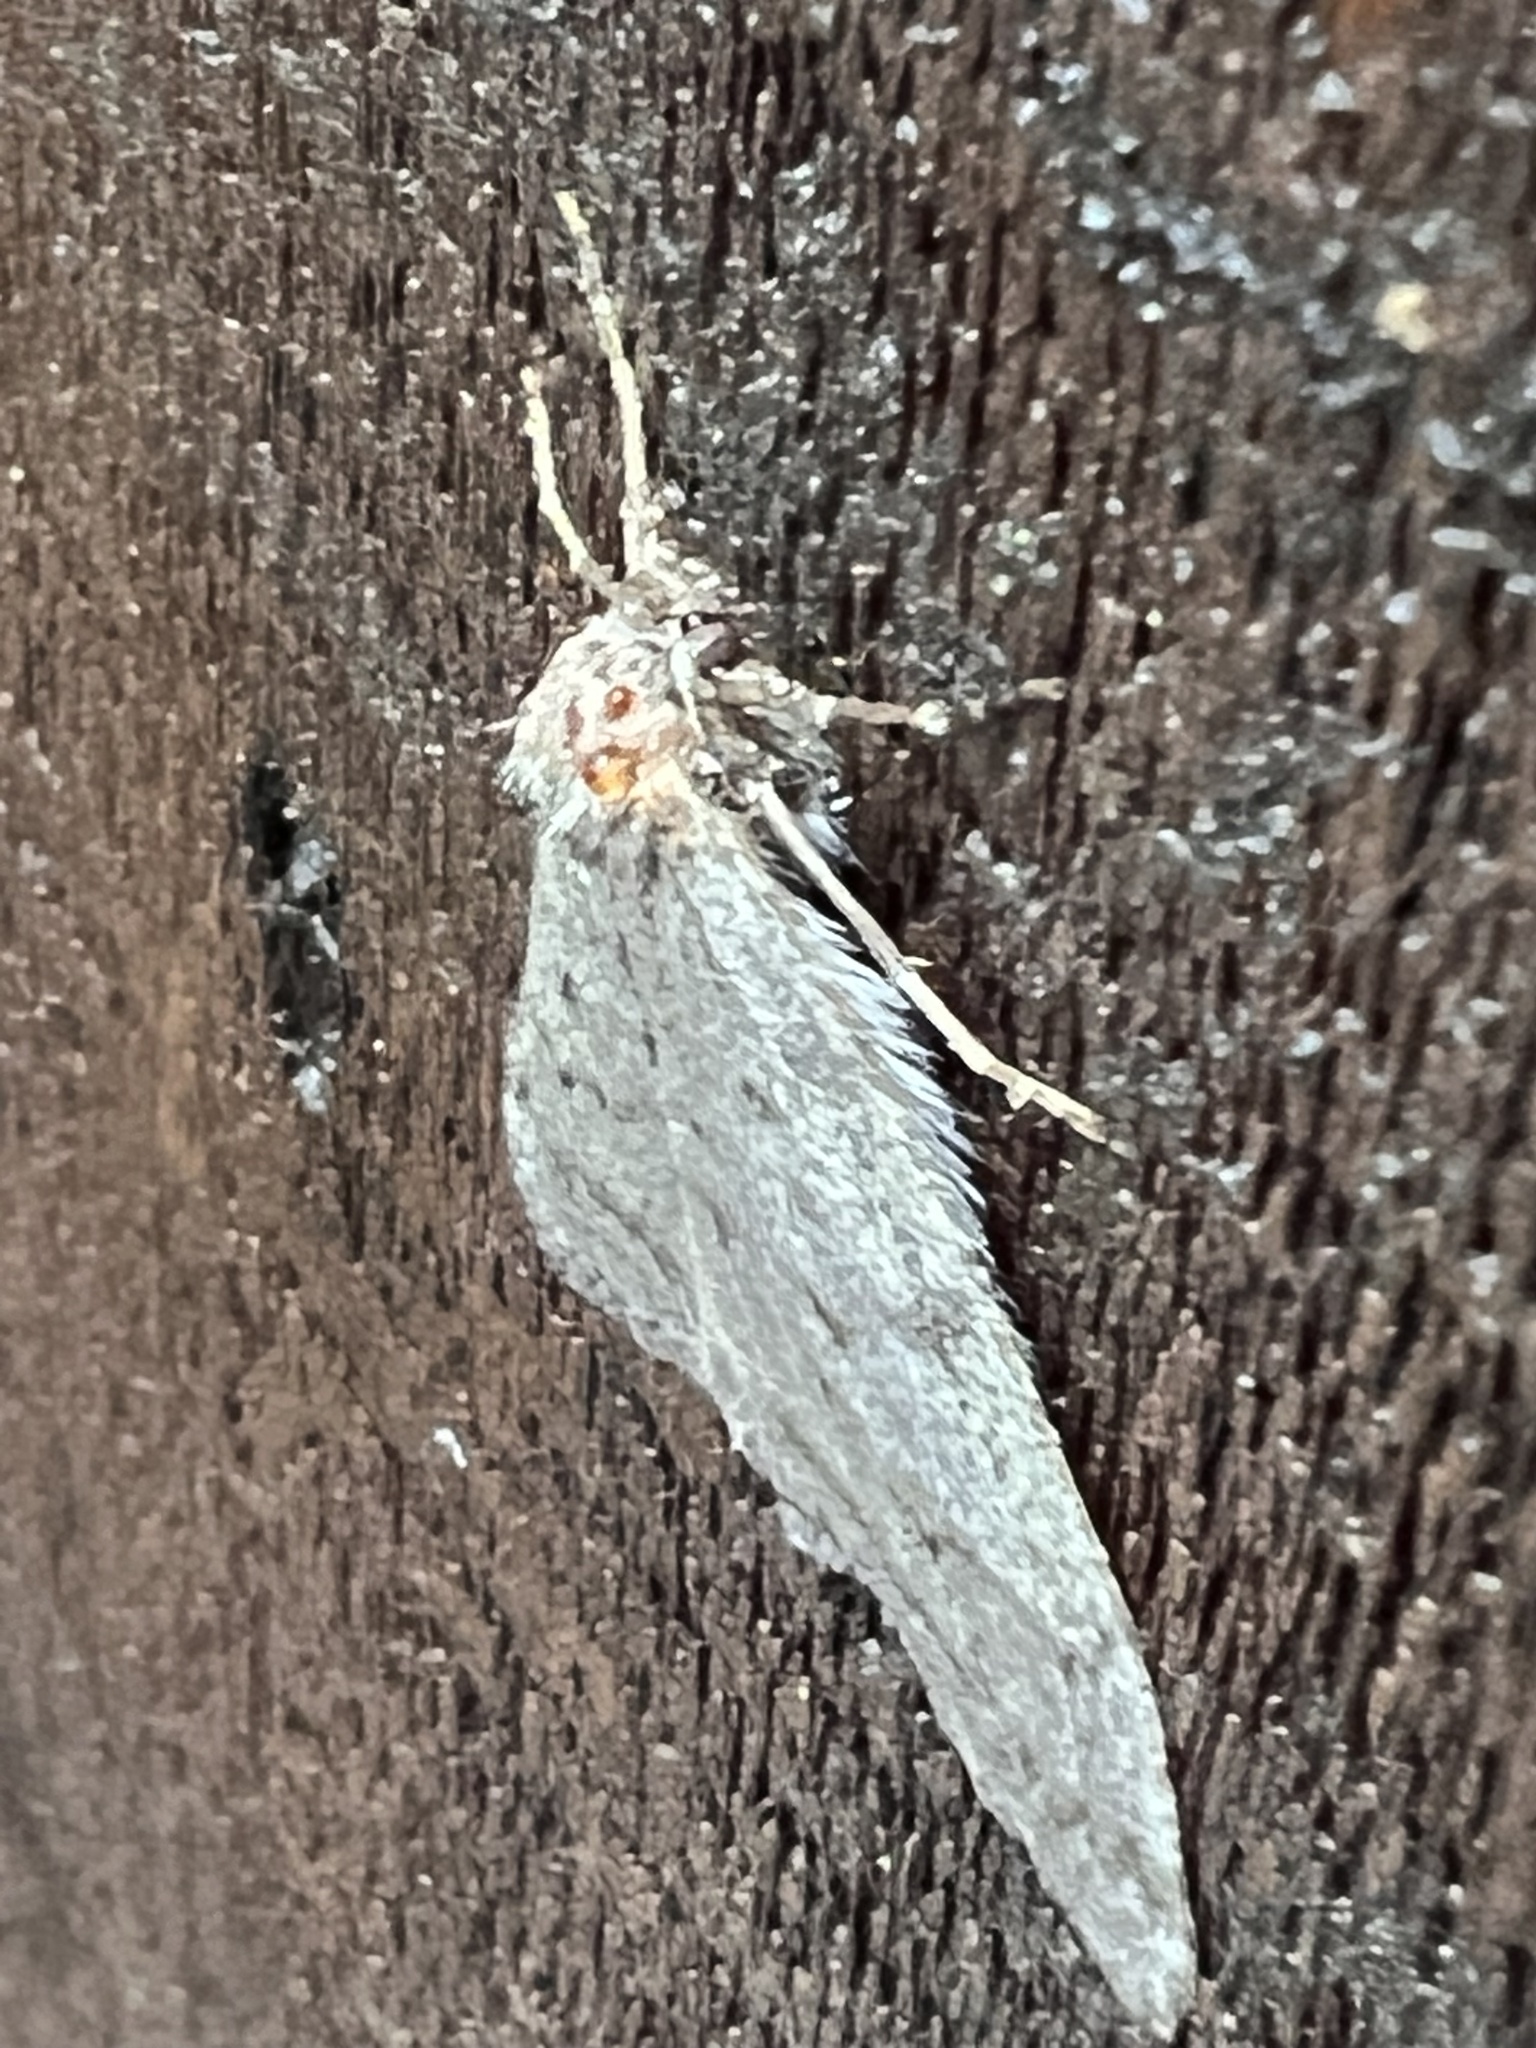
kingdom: Animalia
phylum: Arthropoda
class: Insecta
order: Lepidoptera
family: Geometridae
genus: Phigalia
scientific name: Phigalia plumogeraria
